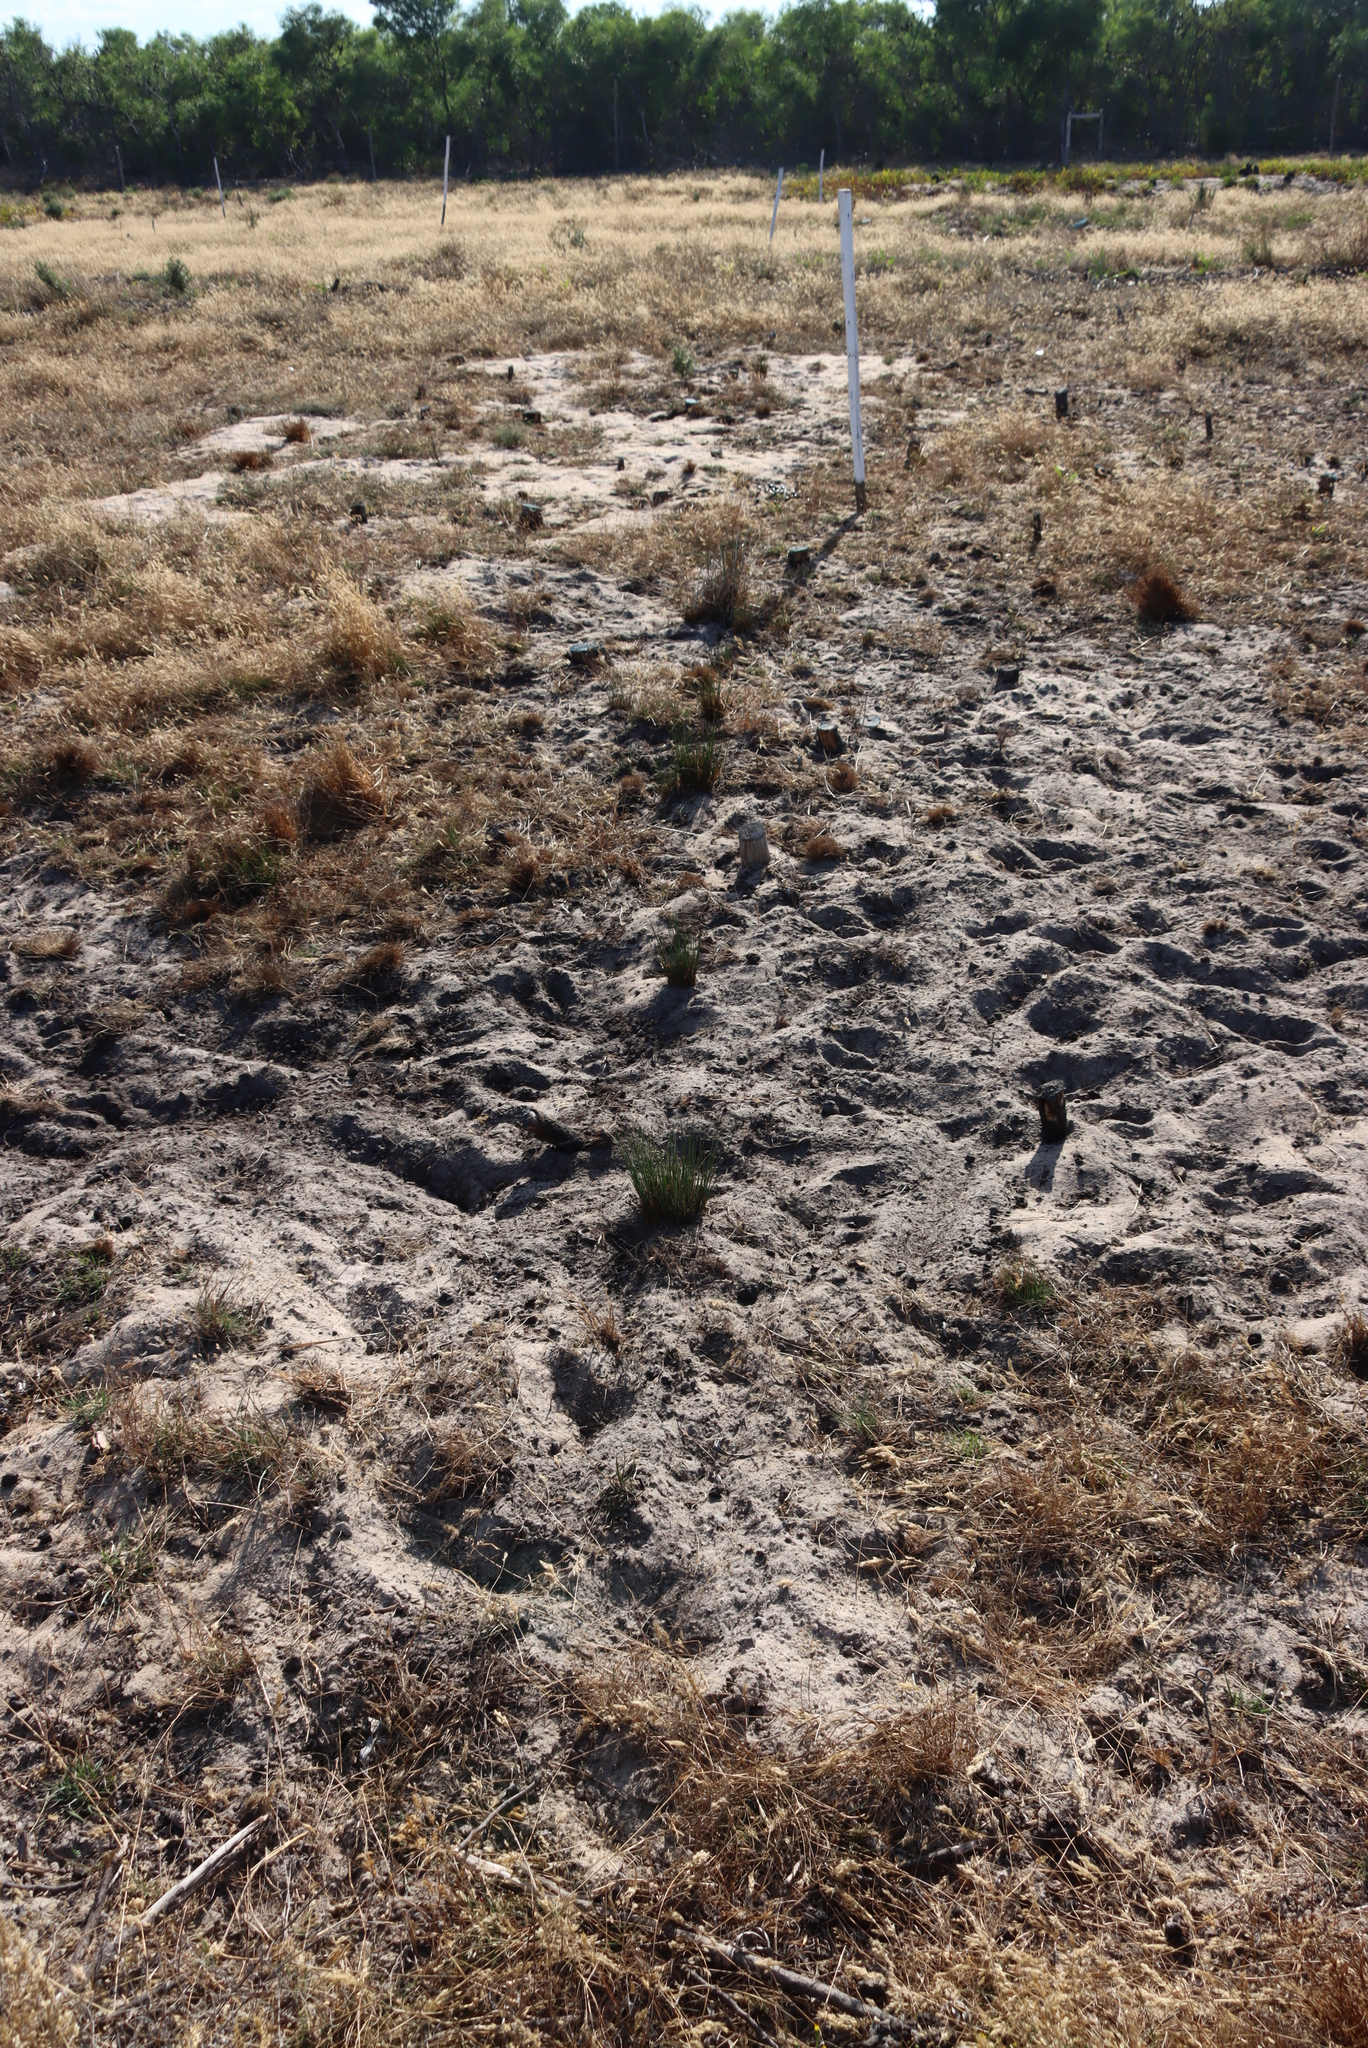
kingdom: Animalia
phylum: Chordata
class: Mammalia
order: Artiodactyla
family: Bovidae
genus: Taurotragus
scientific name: Taurotragus oryx
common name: Common eland
